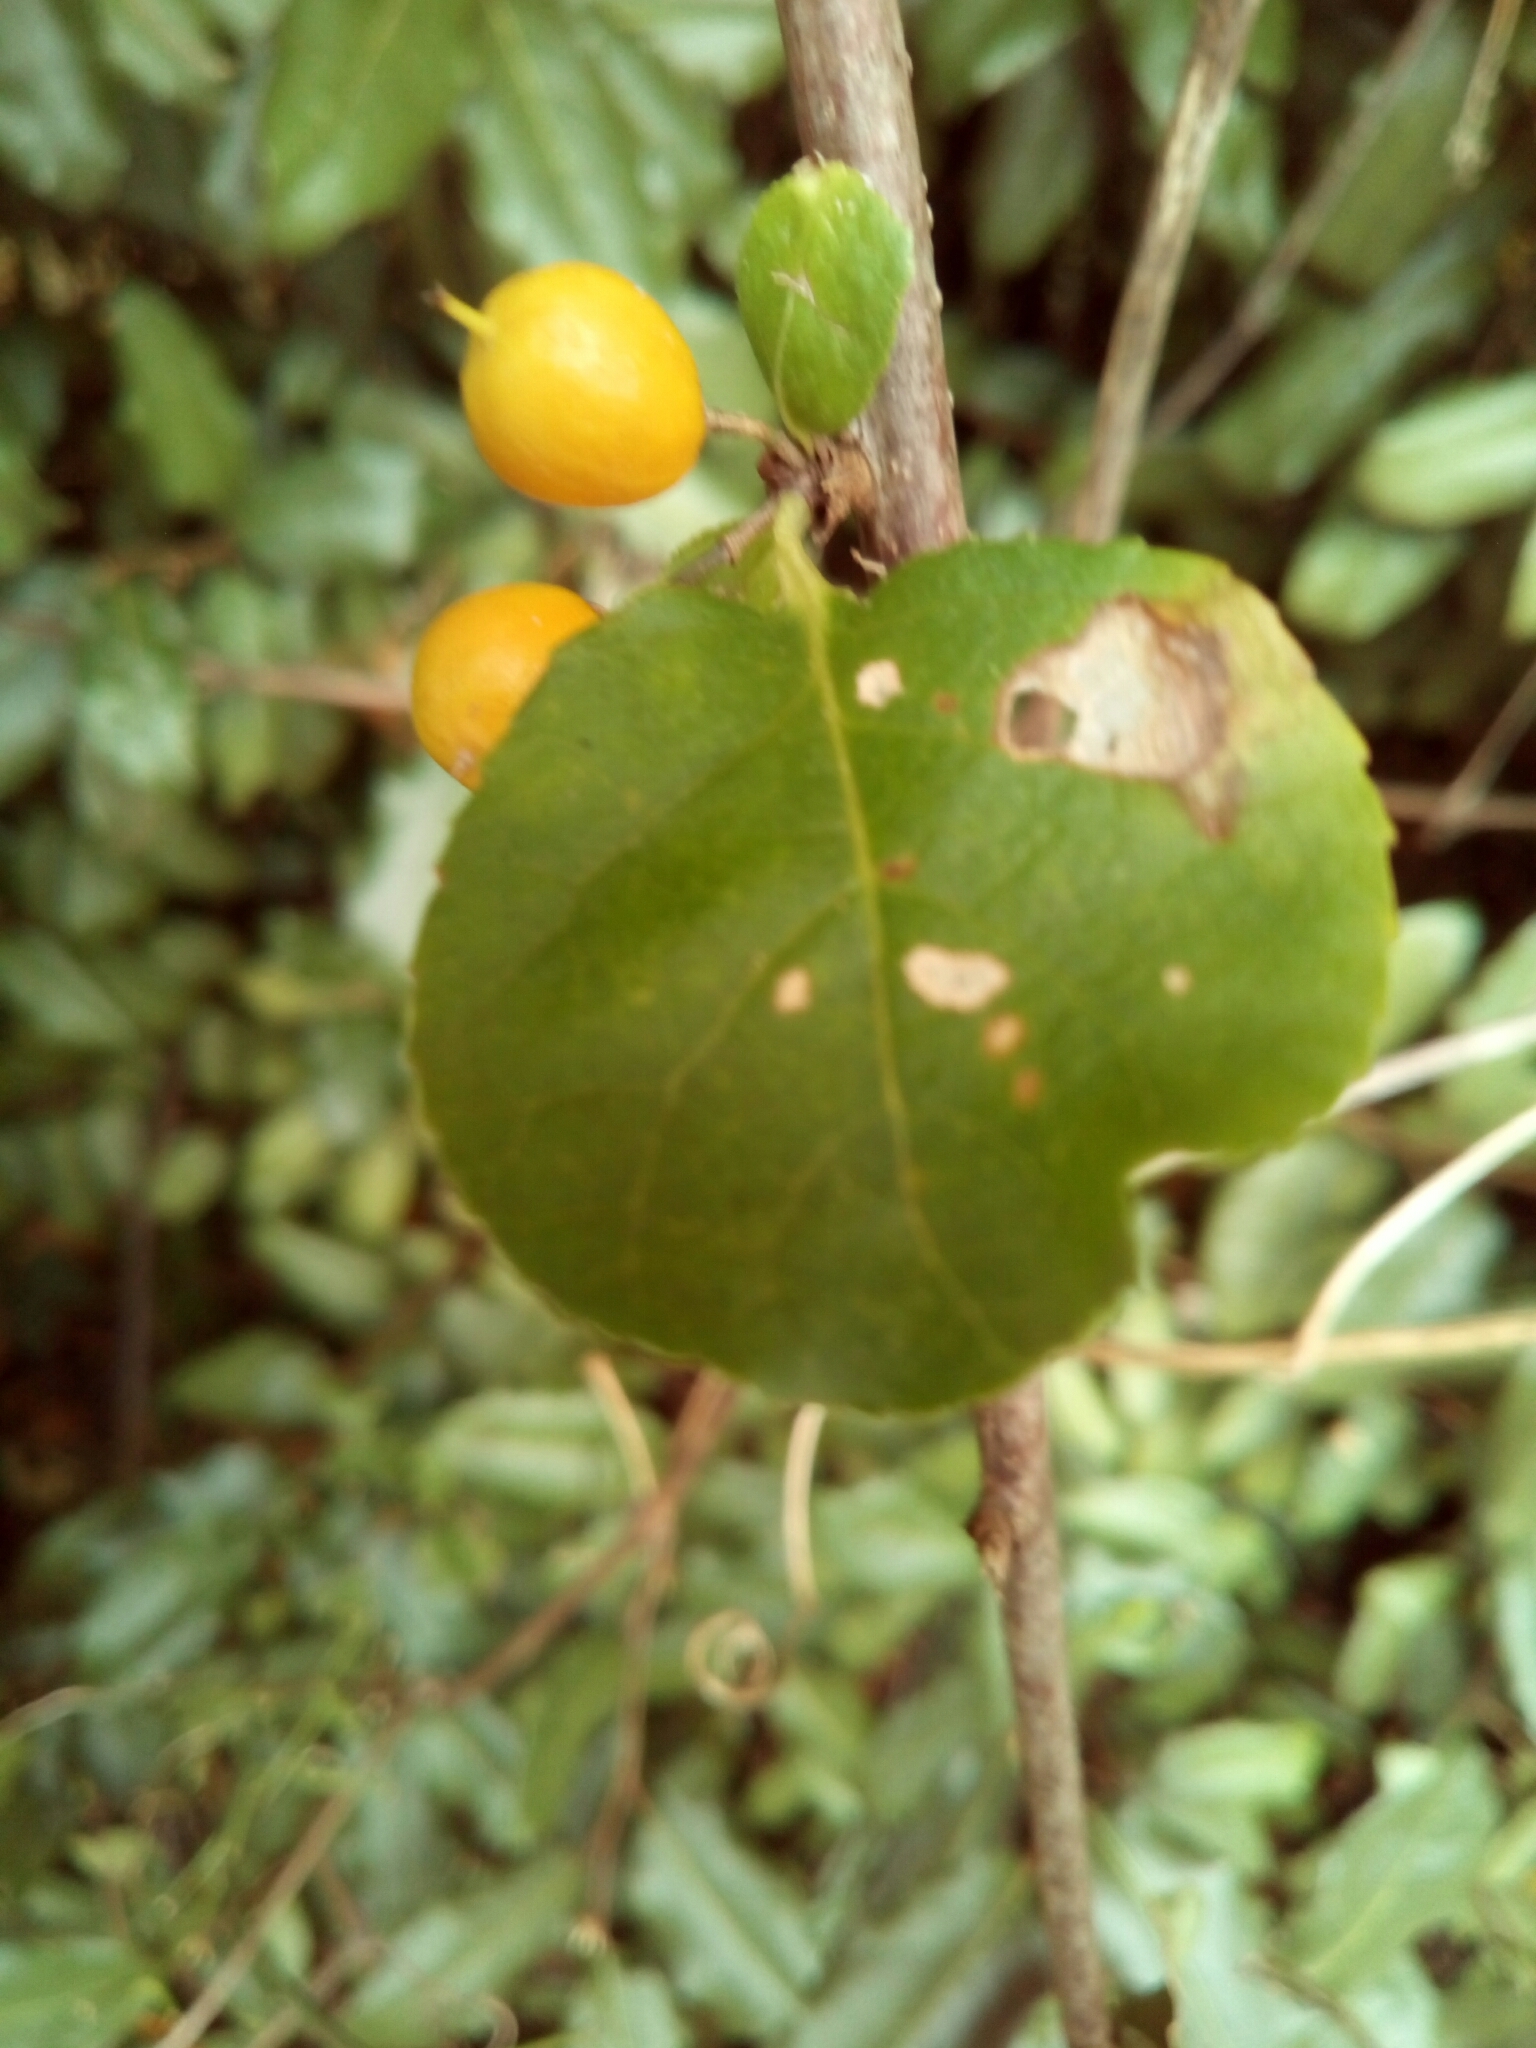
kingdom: Plantae
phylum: Tracheophyta
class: Magnoliopsida
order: Celastrales
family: Celastraceae
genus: Celastrus
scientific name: Celastrus orbiculatus
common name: Oriental bittersweet
